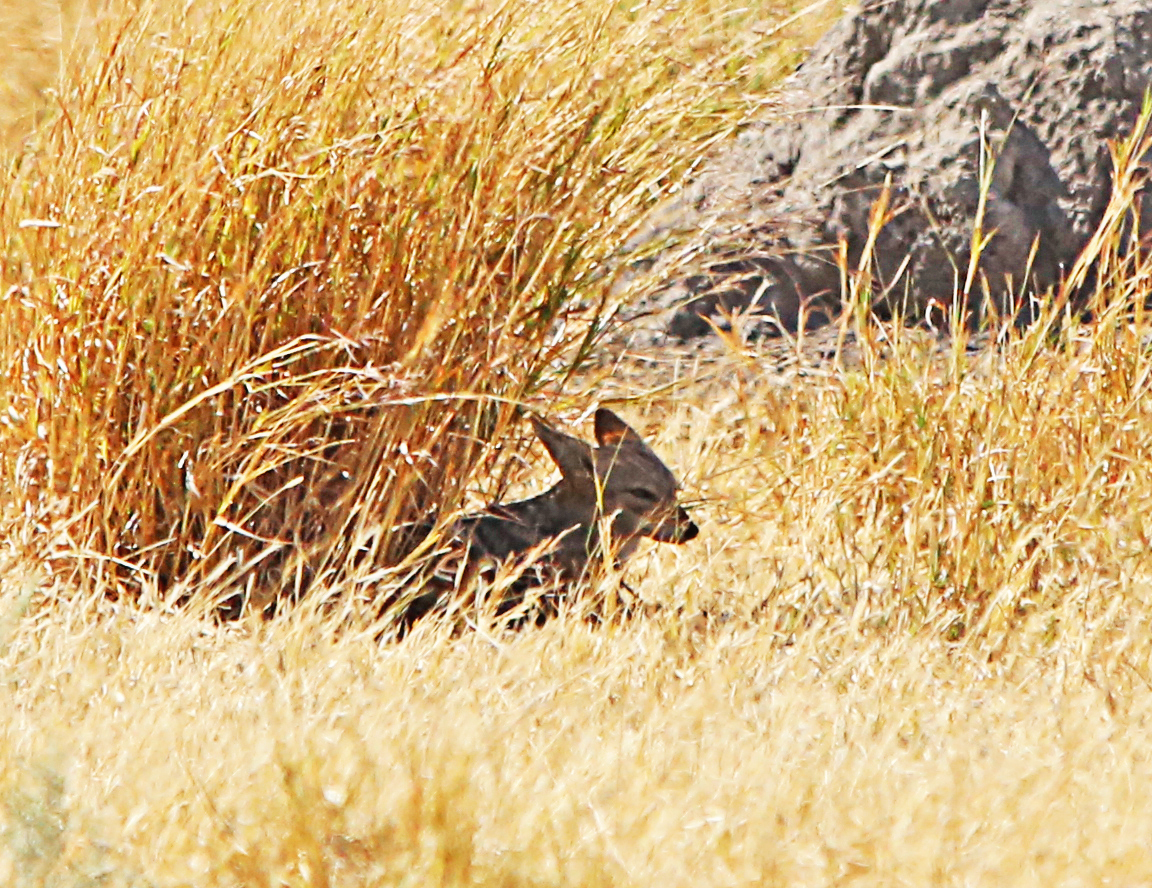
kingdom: Animalia
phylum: Chordata
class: Mammalia
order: Carnivora
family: Canidae
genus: Lupulella
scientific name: Lupulella
